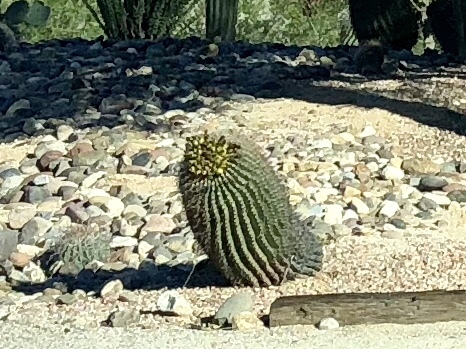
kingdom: Plantae
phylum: Tracheophyta
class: Magnoliopsida
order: Caryophyllales
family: Cactaceae
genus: Ferocactus
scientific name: Ferocactus wislizeni
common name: Candy barrel cactus
